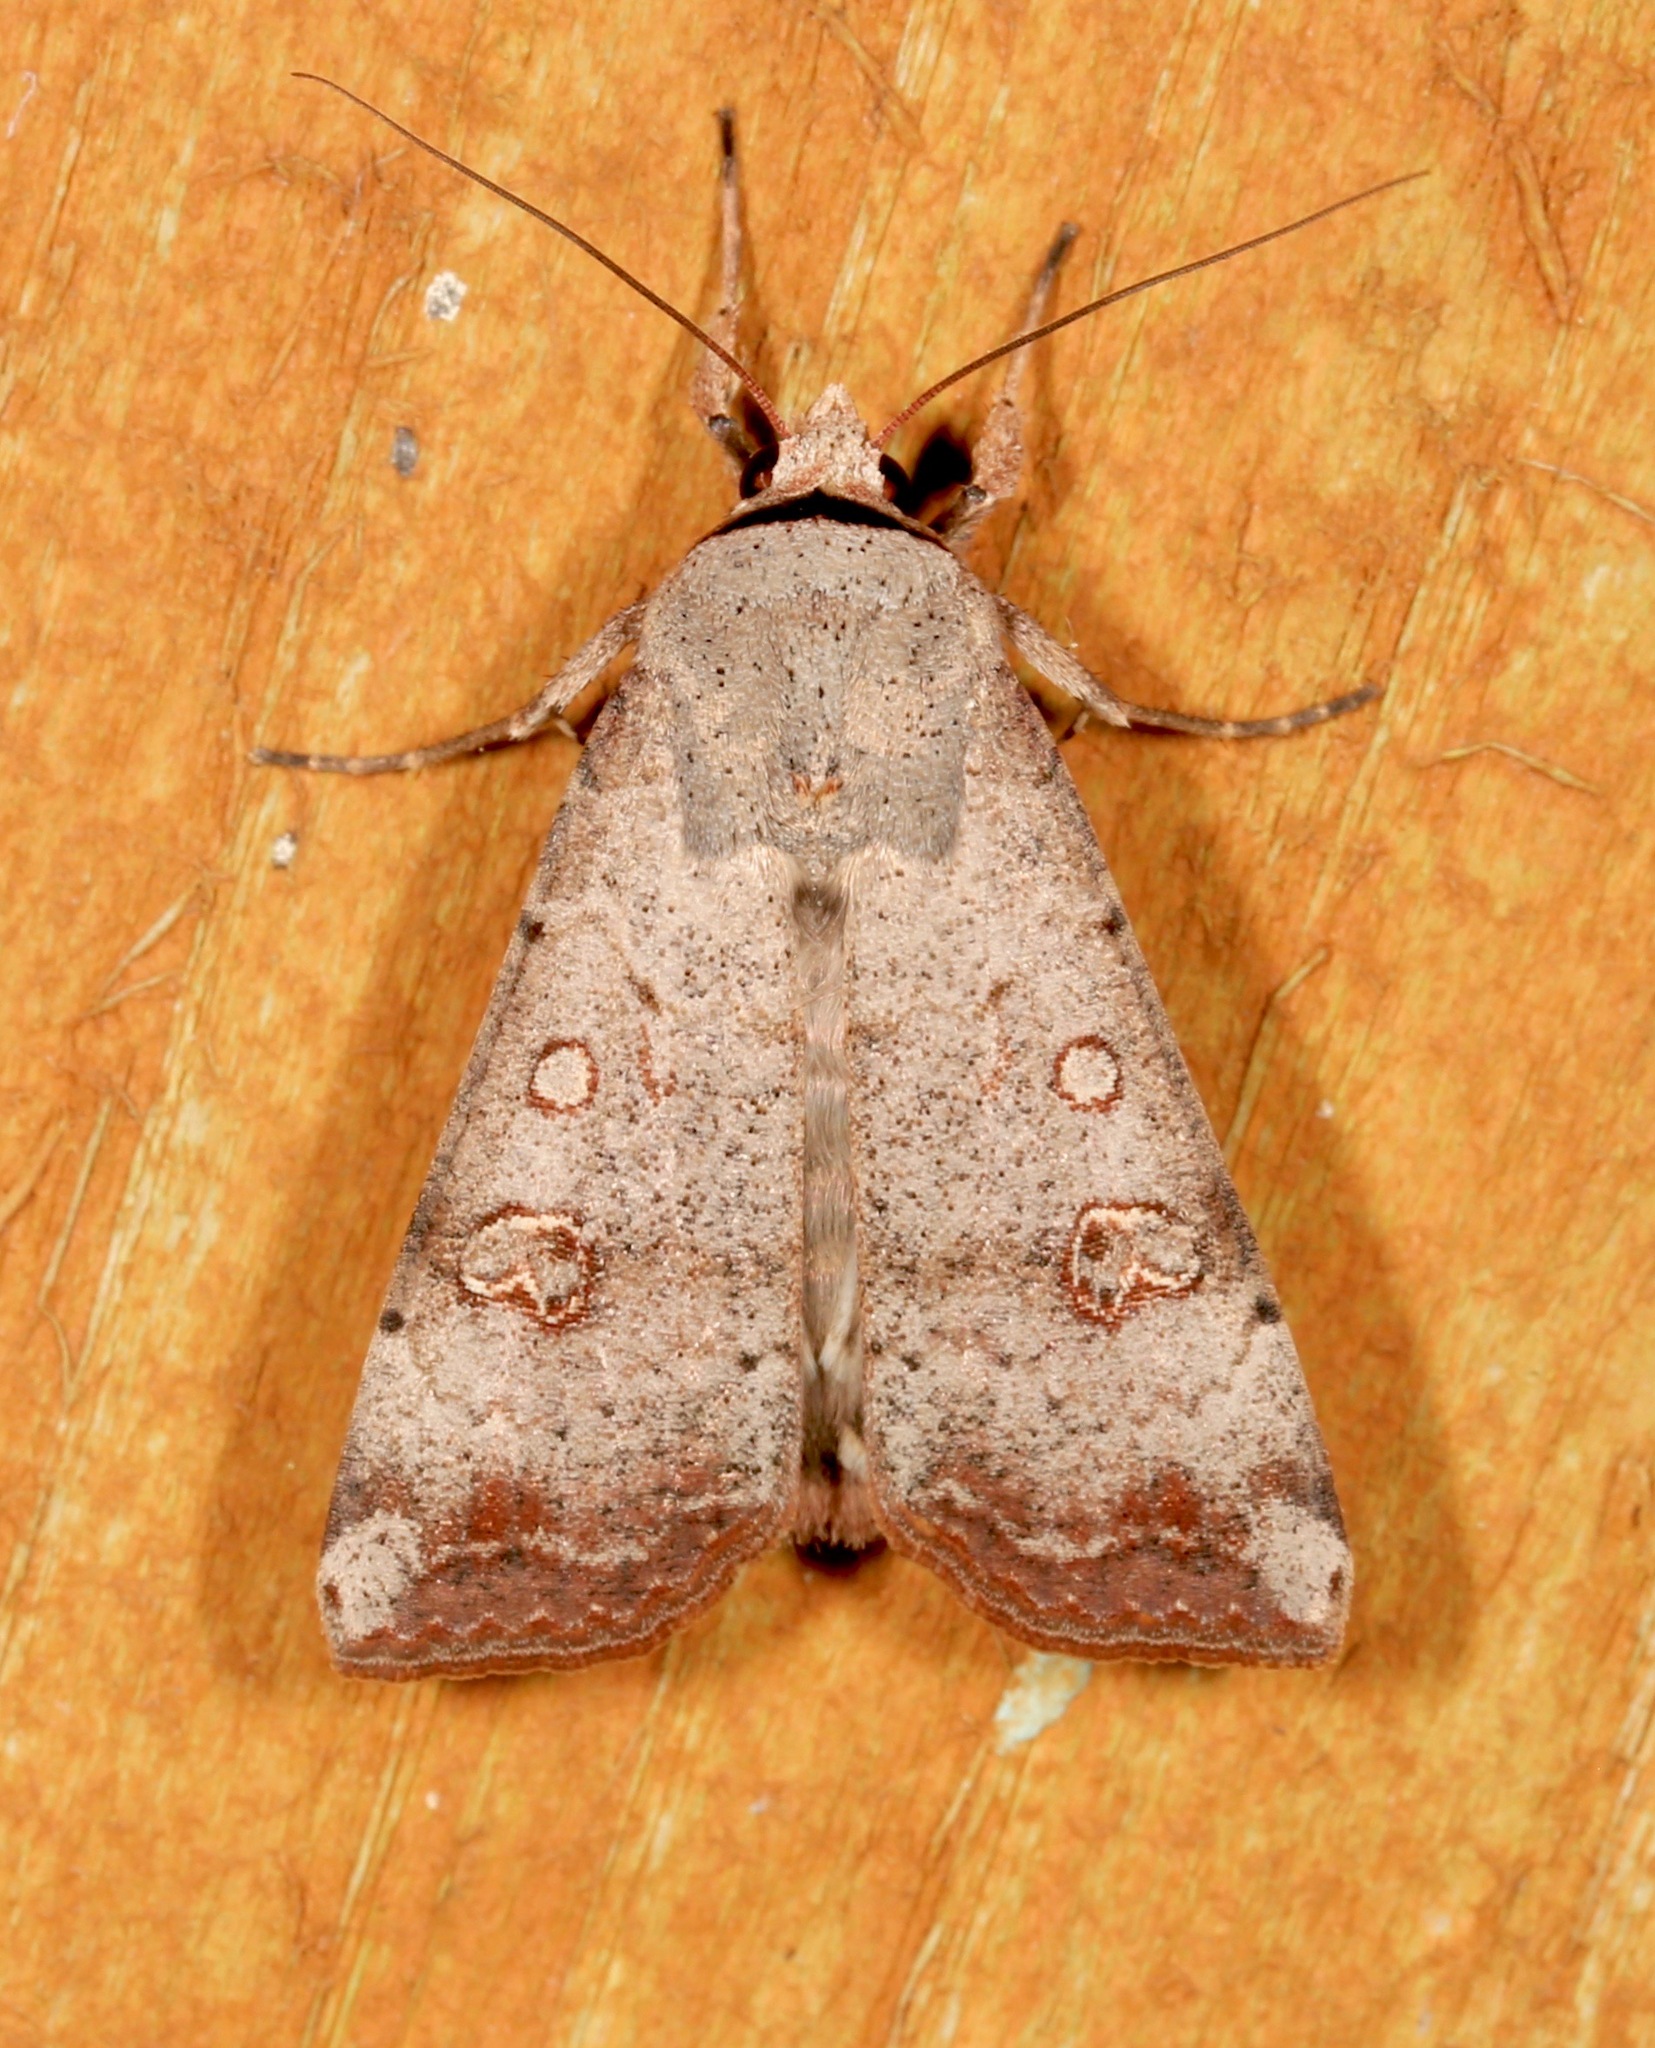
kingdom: Animalia
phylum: Arthropoda
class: Insecta
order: Lepidoptera
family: Noctuidae
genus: Anicla
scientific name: Anicla infecta
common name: Green cutworm
